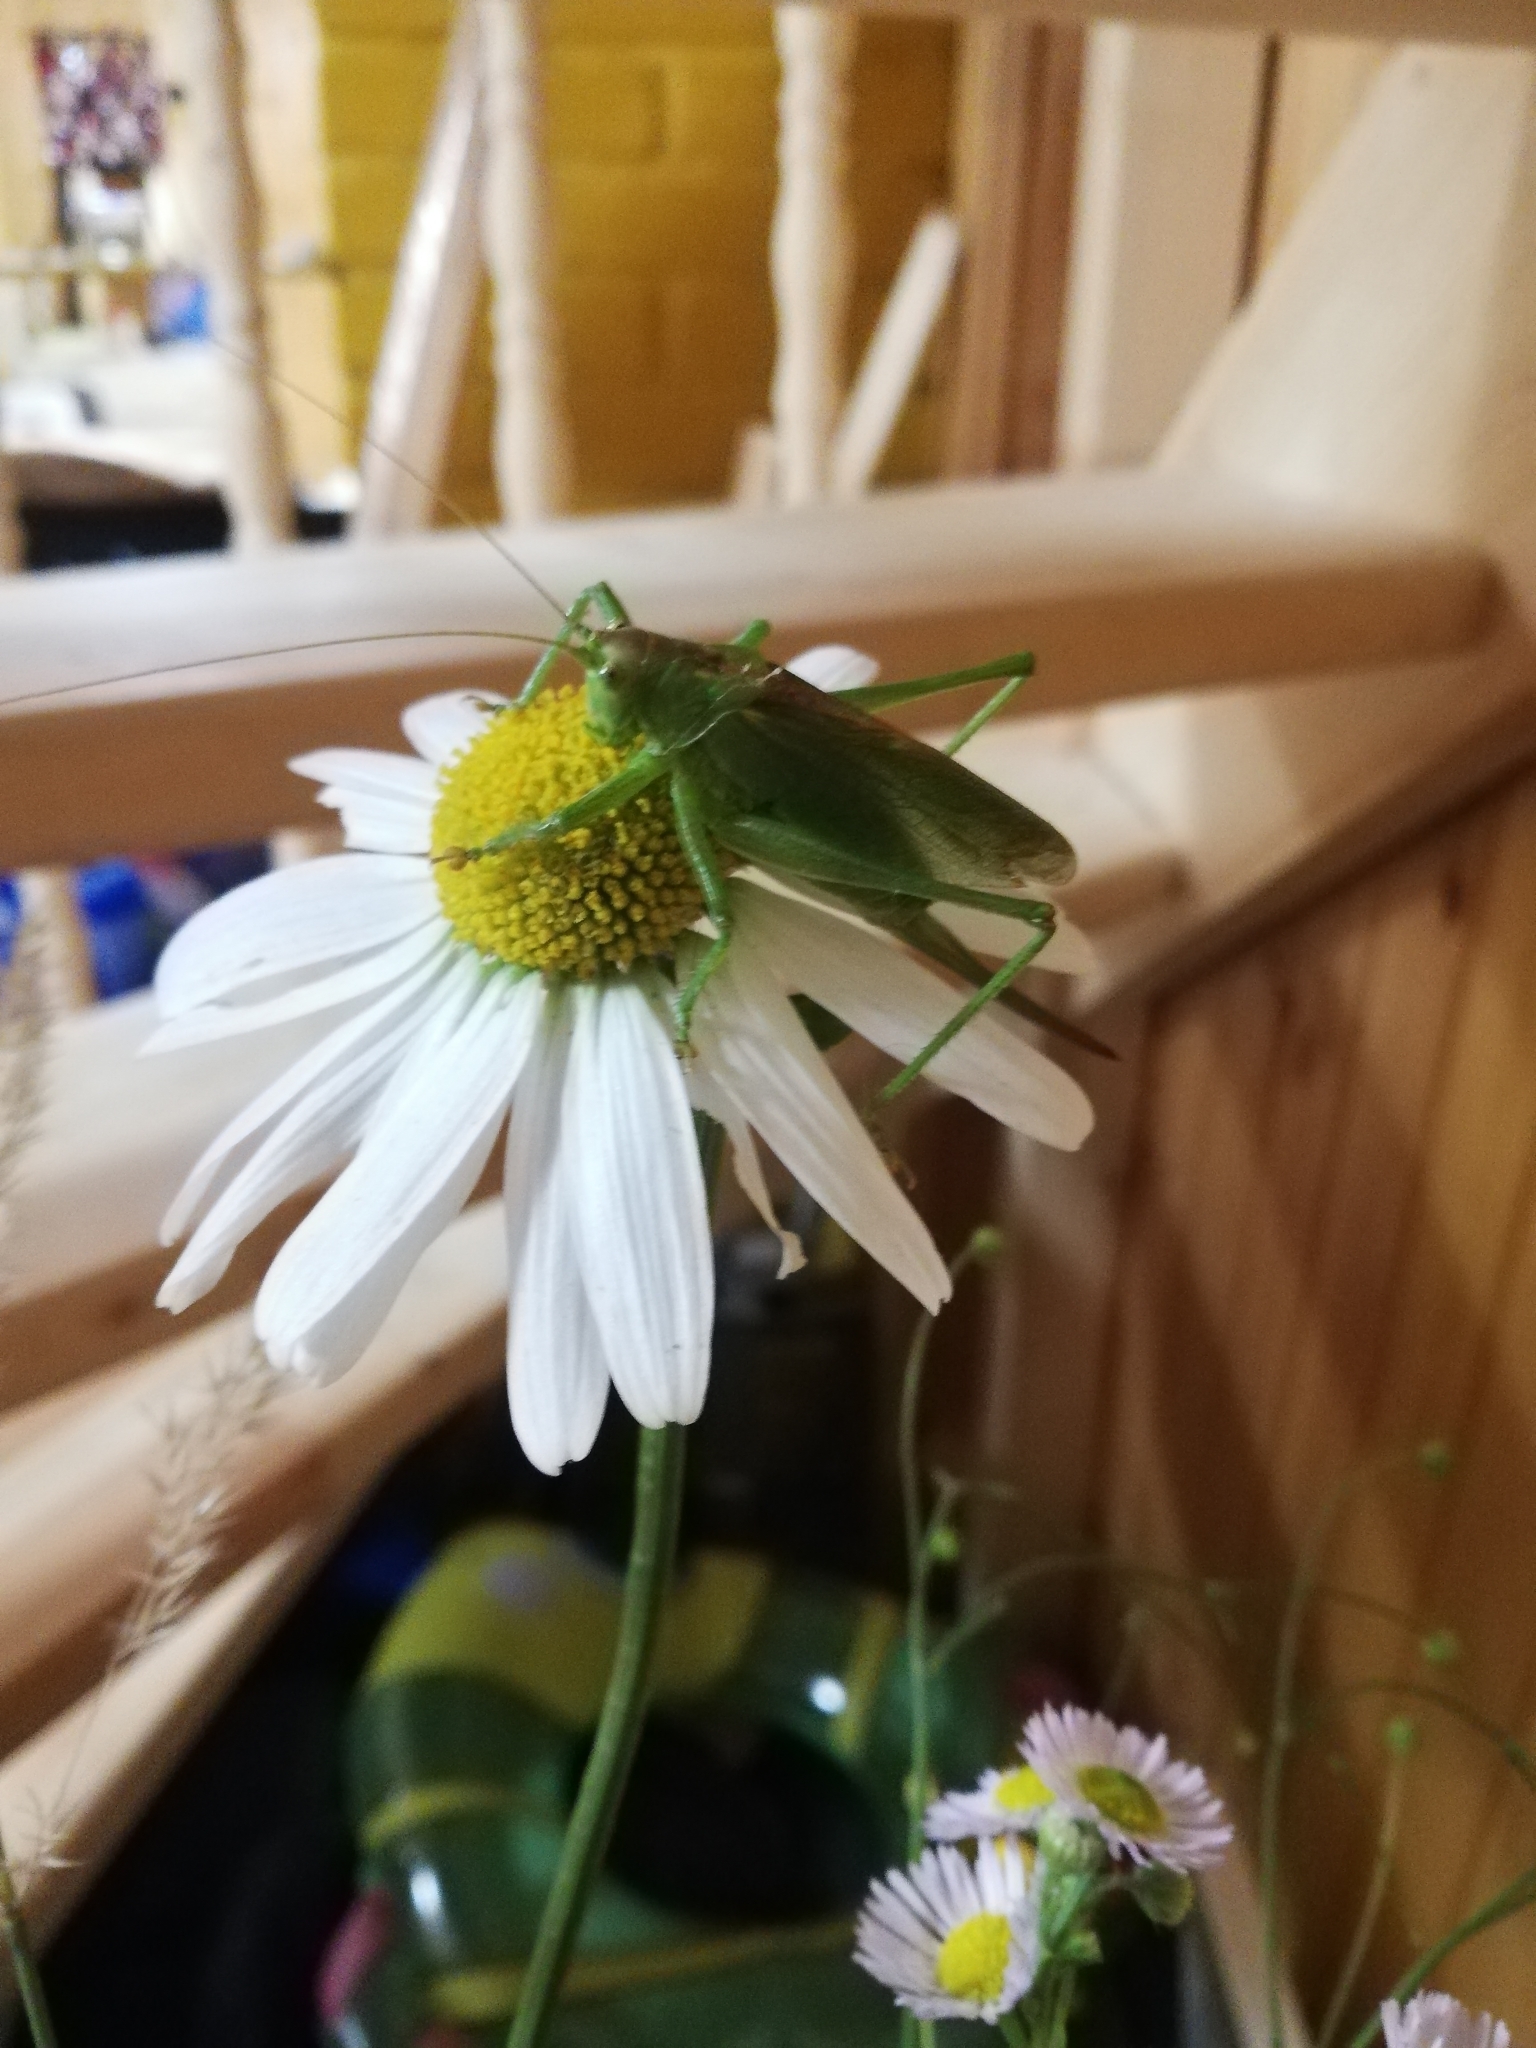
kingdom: Animalia
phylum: Arthropoda
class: Insecta
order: Orthoptera
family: Tettigoniidae
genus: Tettigonia
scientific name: Tettigonia cantans
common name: Upland green bush-cricket
